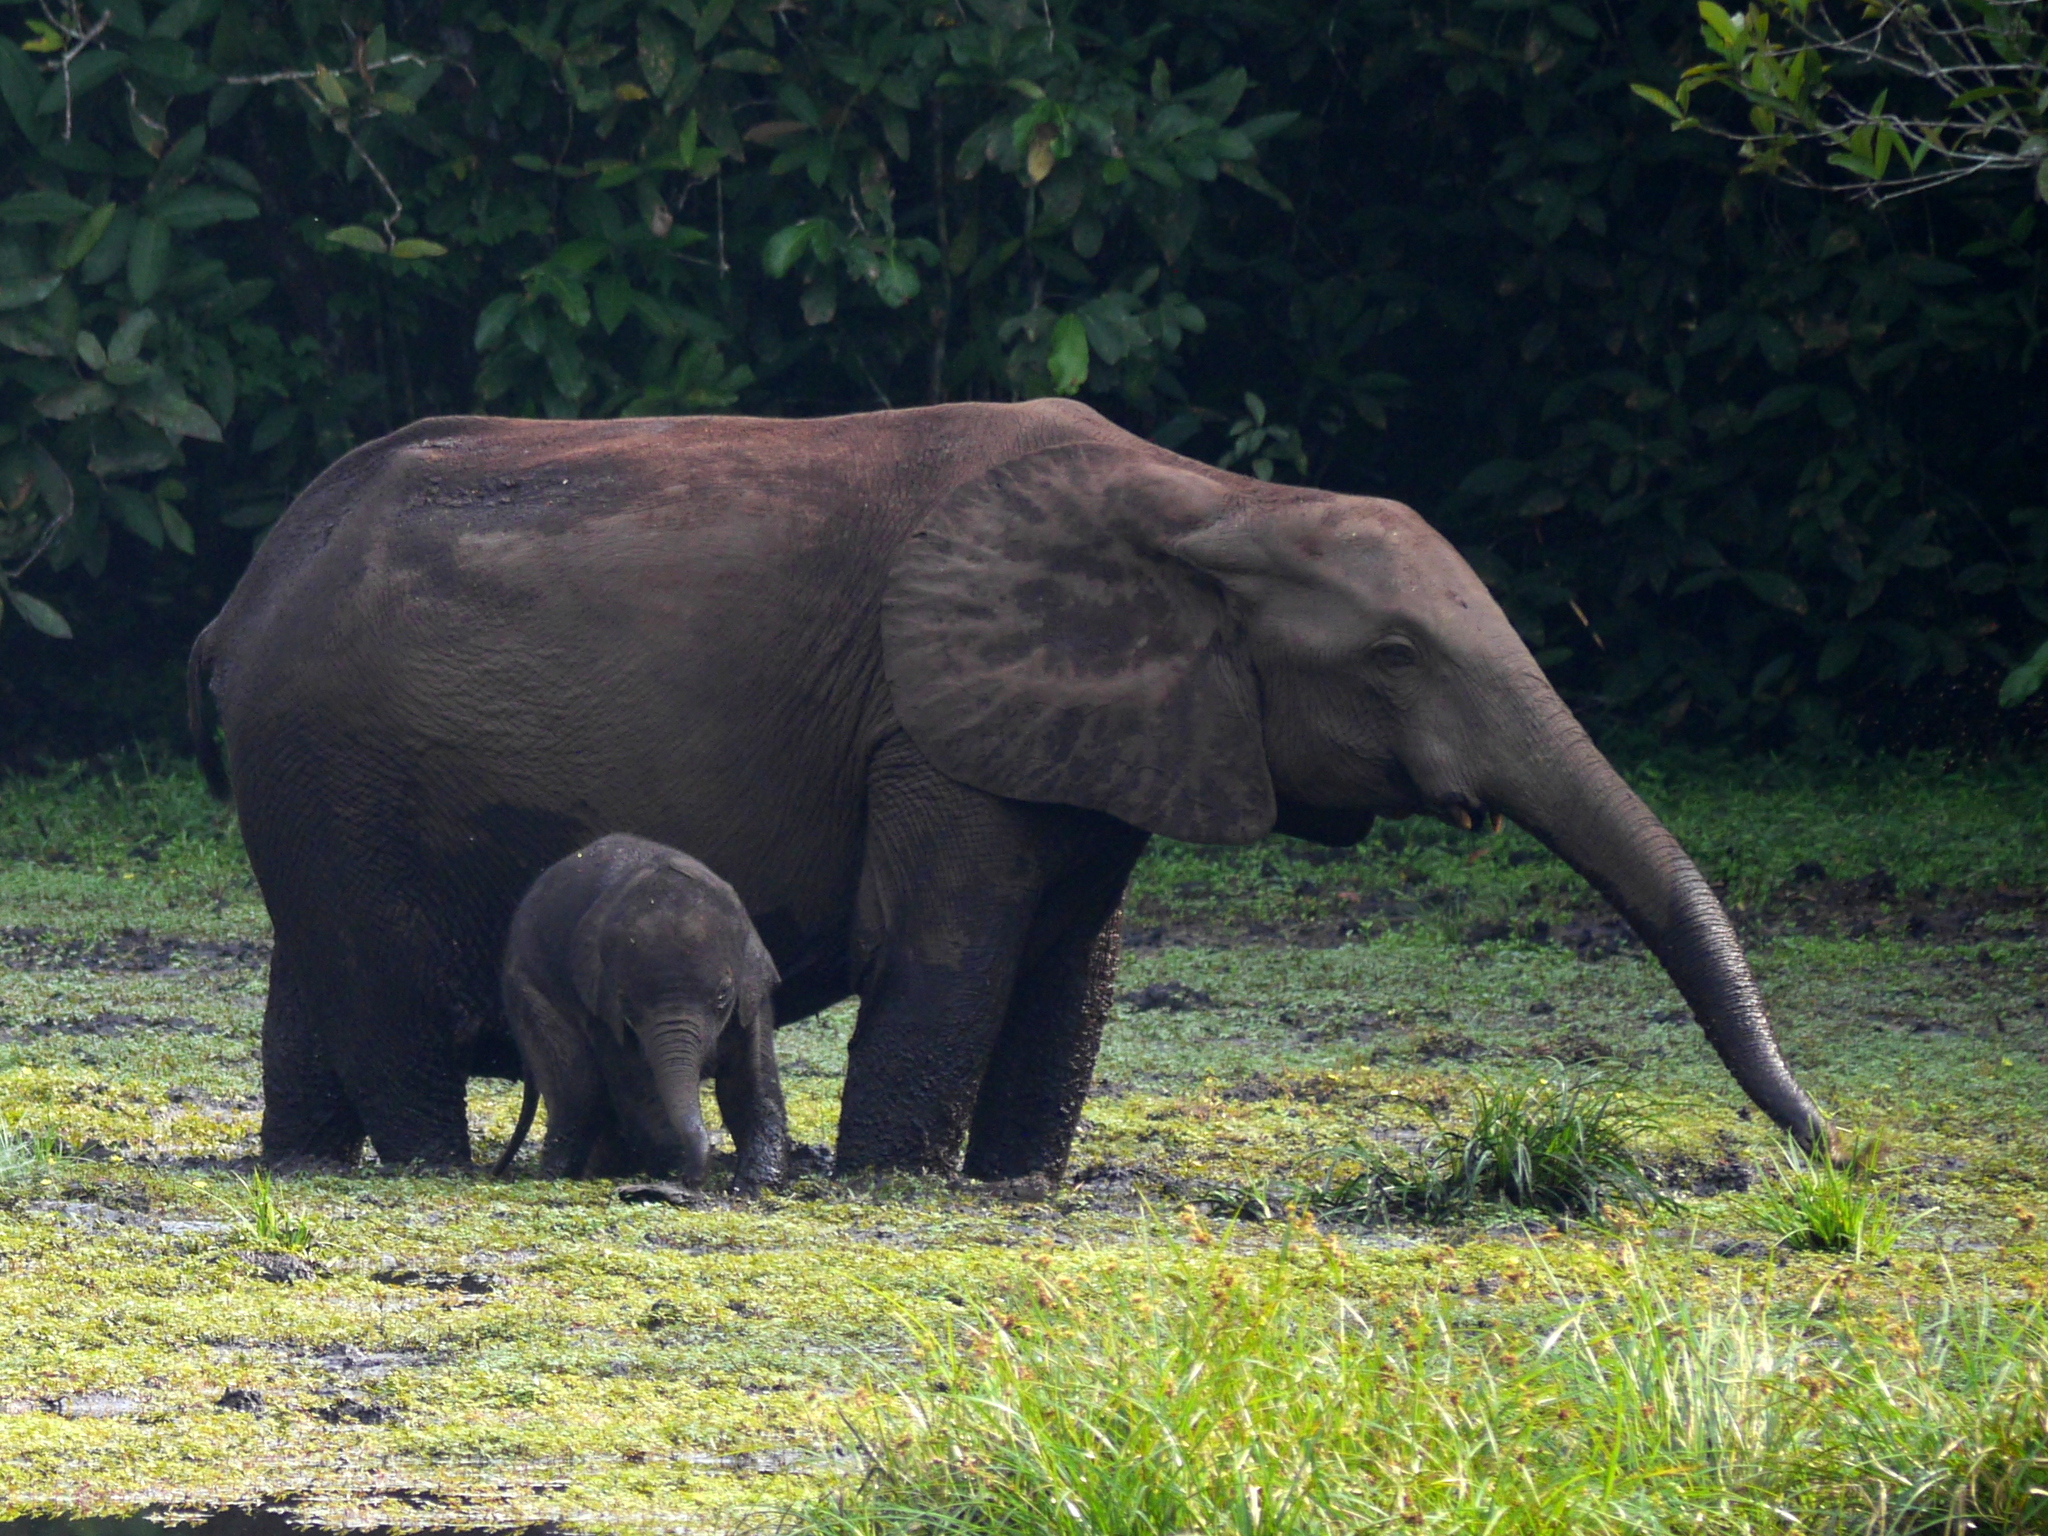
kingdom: Animalia
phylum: Chordata
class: Mammalia
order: Proboscidea
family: Elephantidae
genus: Loxodonta
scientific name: Loxodonta cyclotis
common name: African forest elephant
